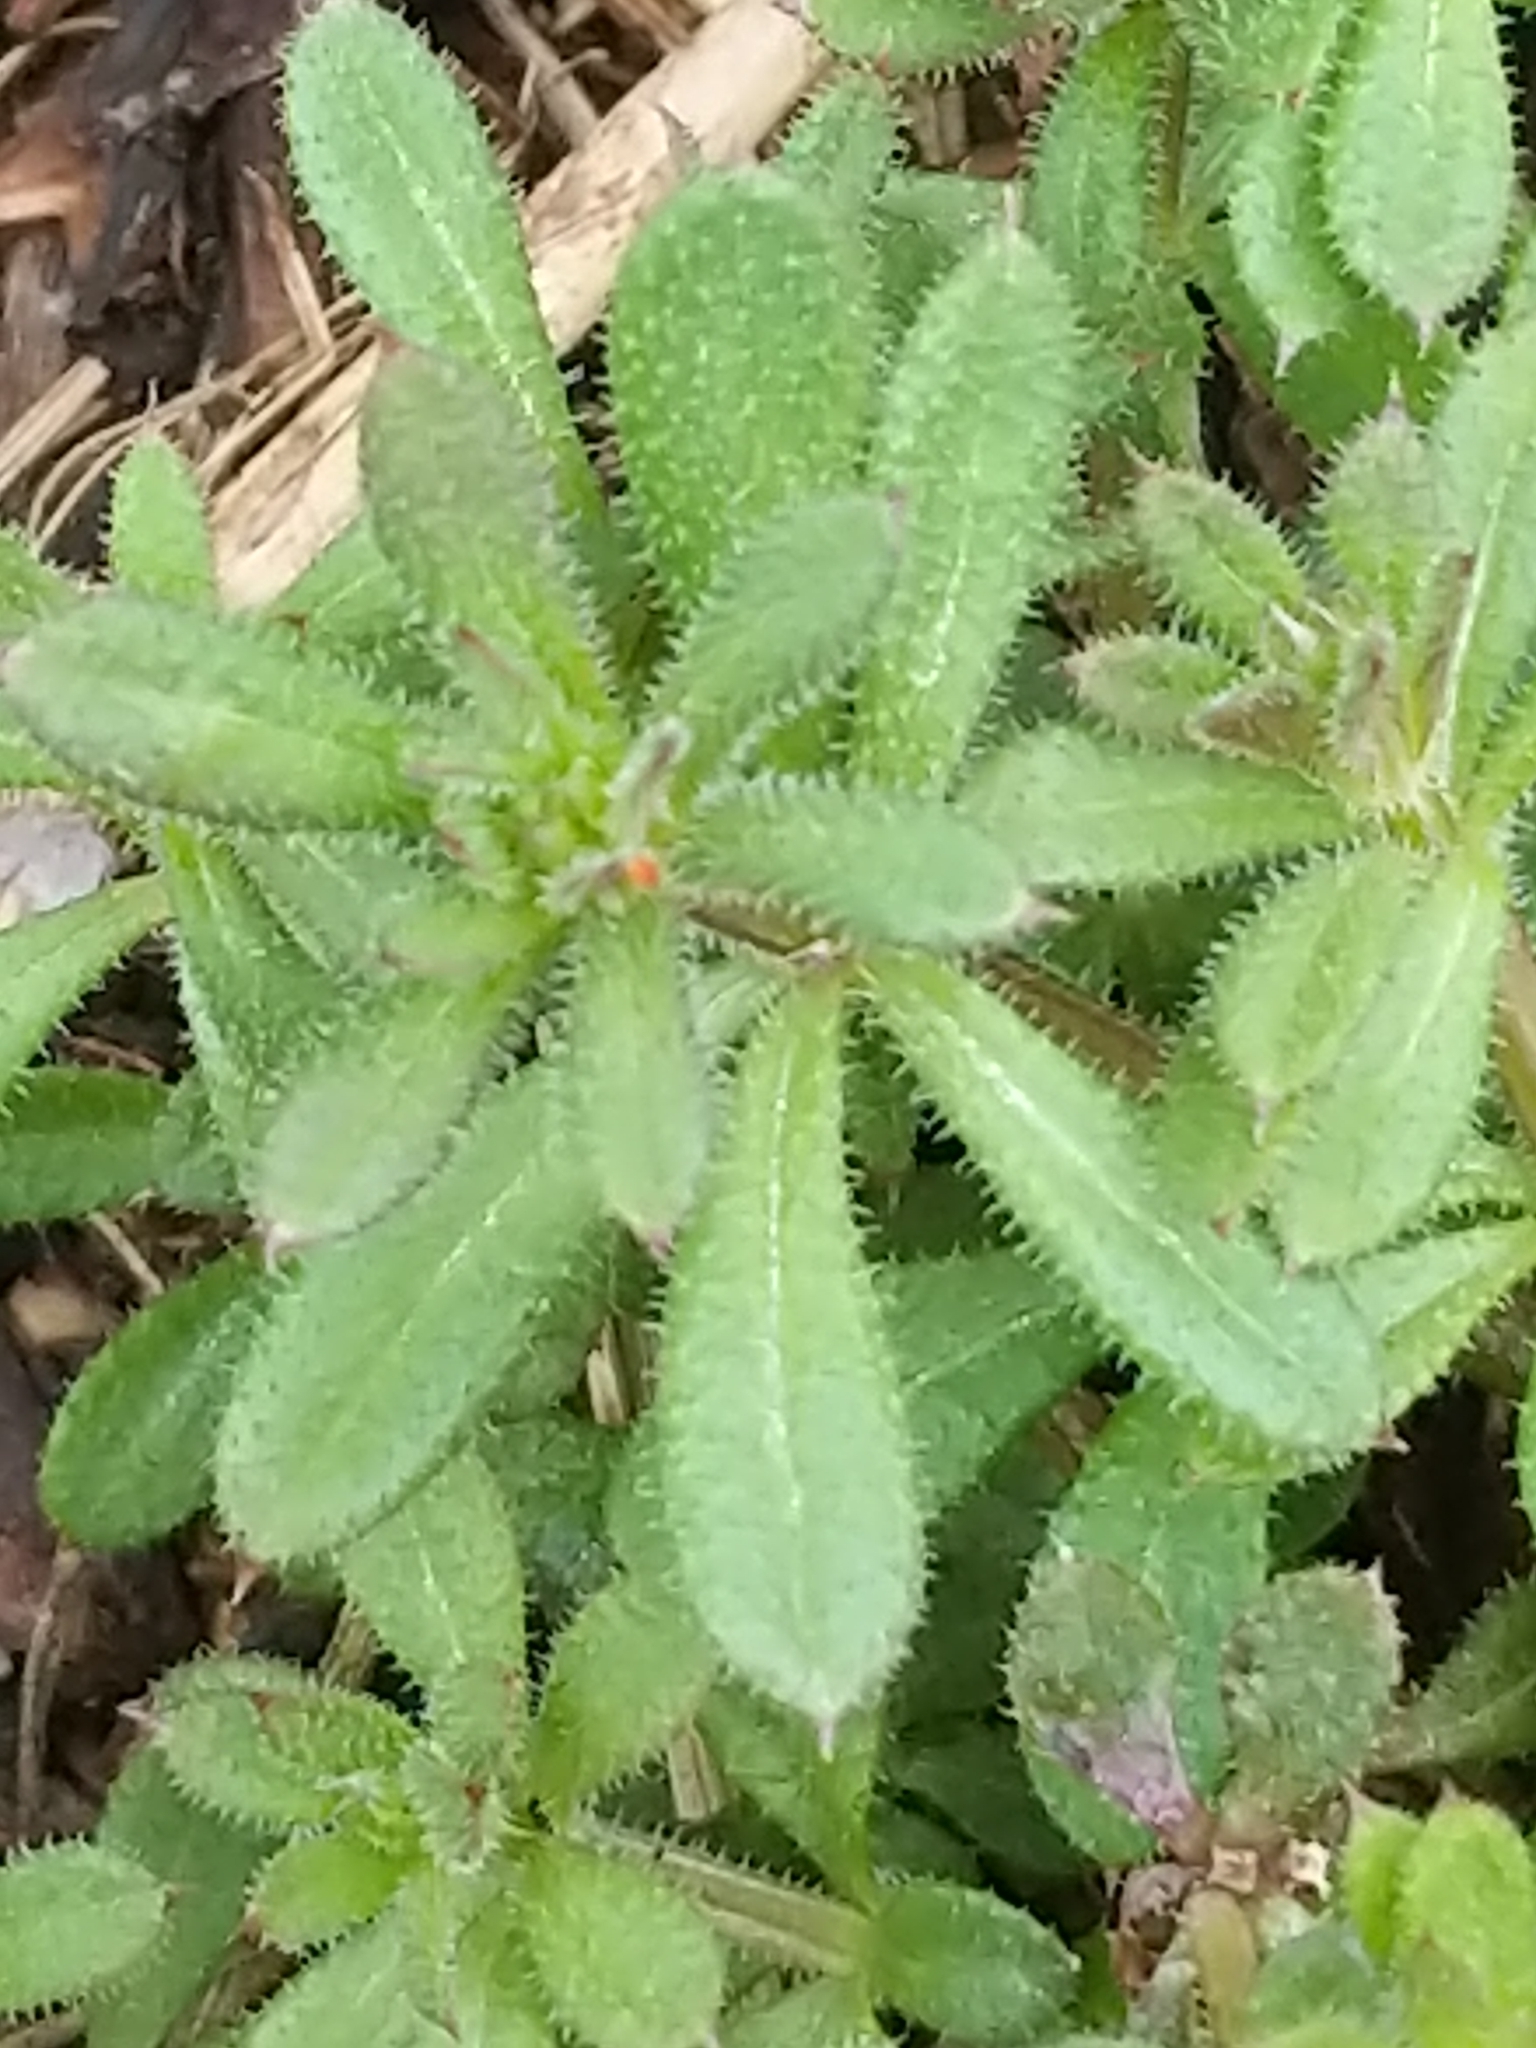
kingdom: Plantae
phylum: Tracheophyta
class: Magnoliopsida
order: Gentianales
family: Rubiaceae
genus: Galium
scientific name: Galium aparine
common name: Cleavers
